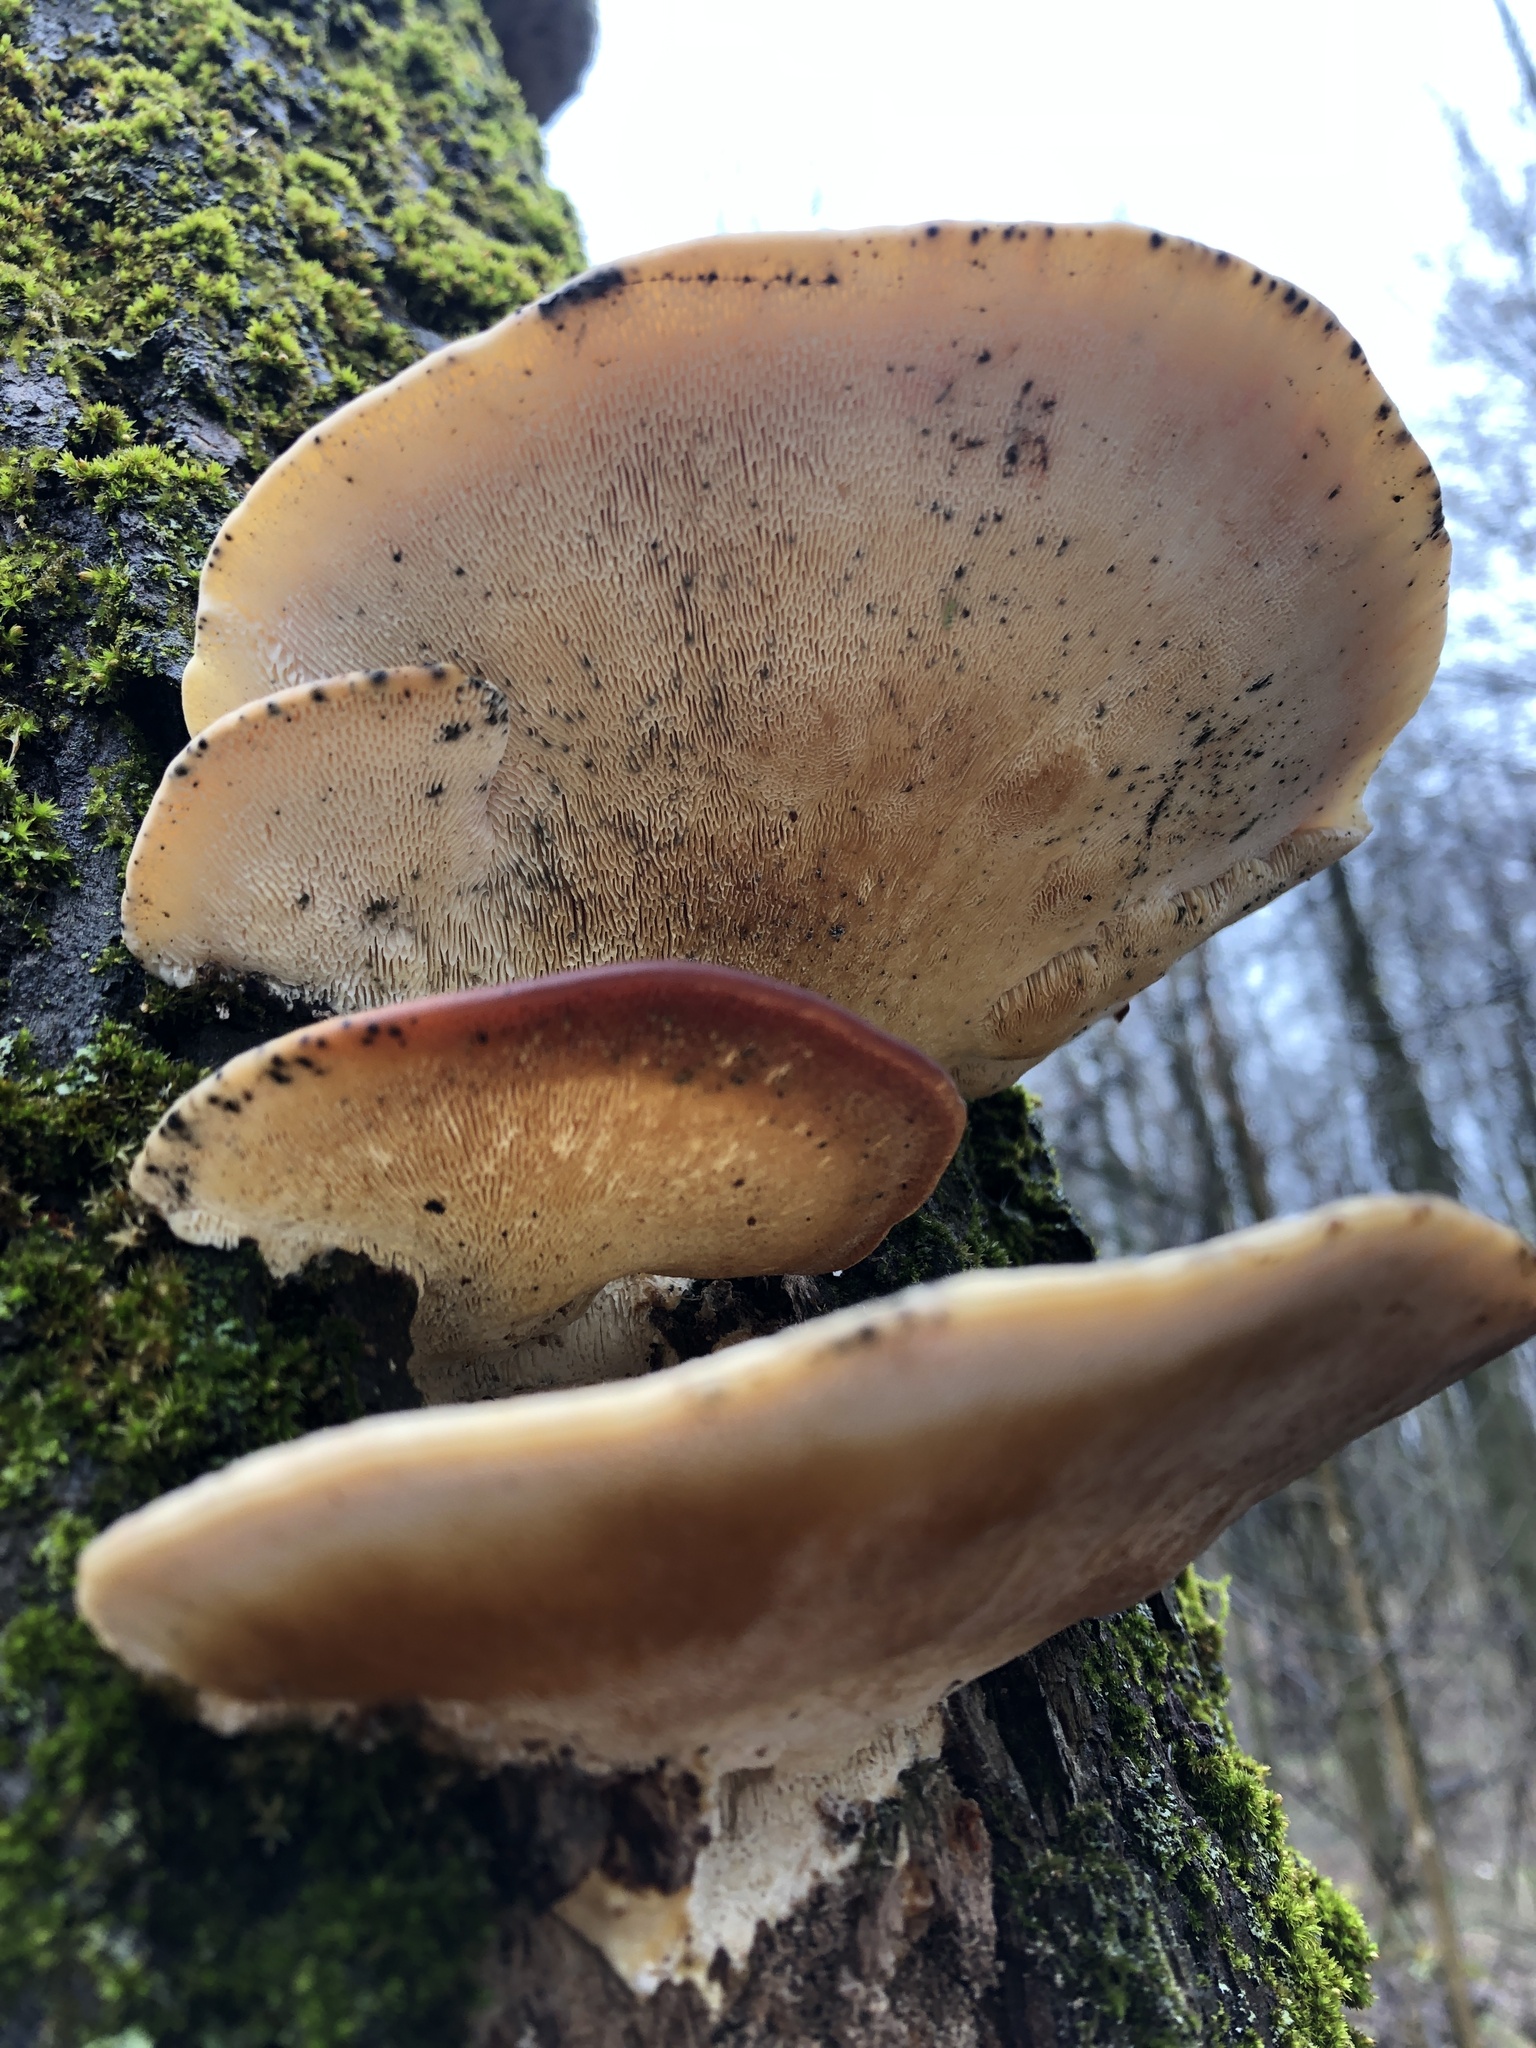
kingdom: Fungi
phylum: Basidiomycota
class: Agaricomycetes
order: Polyporales
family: Polyporaceae
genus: Trametes
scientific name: Trametes gibbosa
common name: Lumpy bracket
